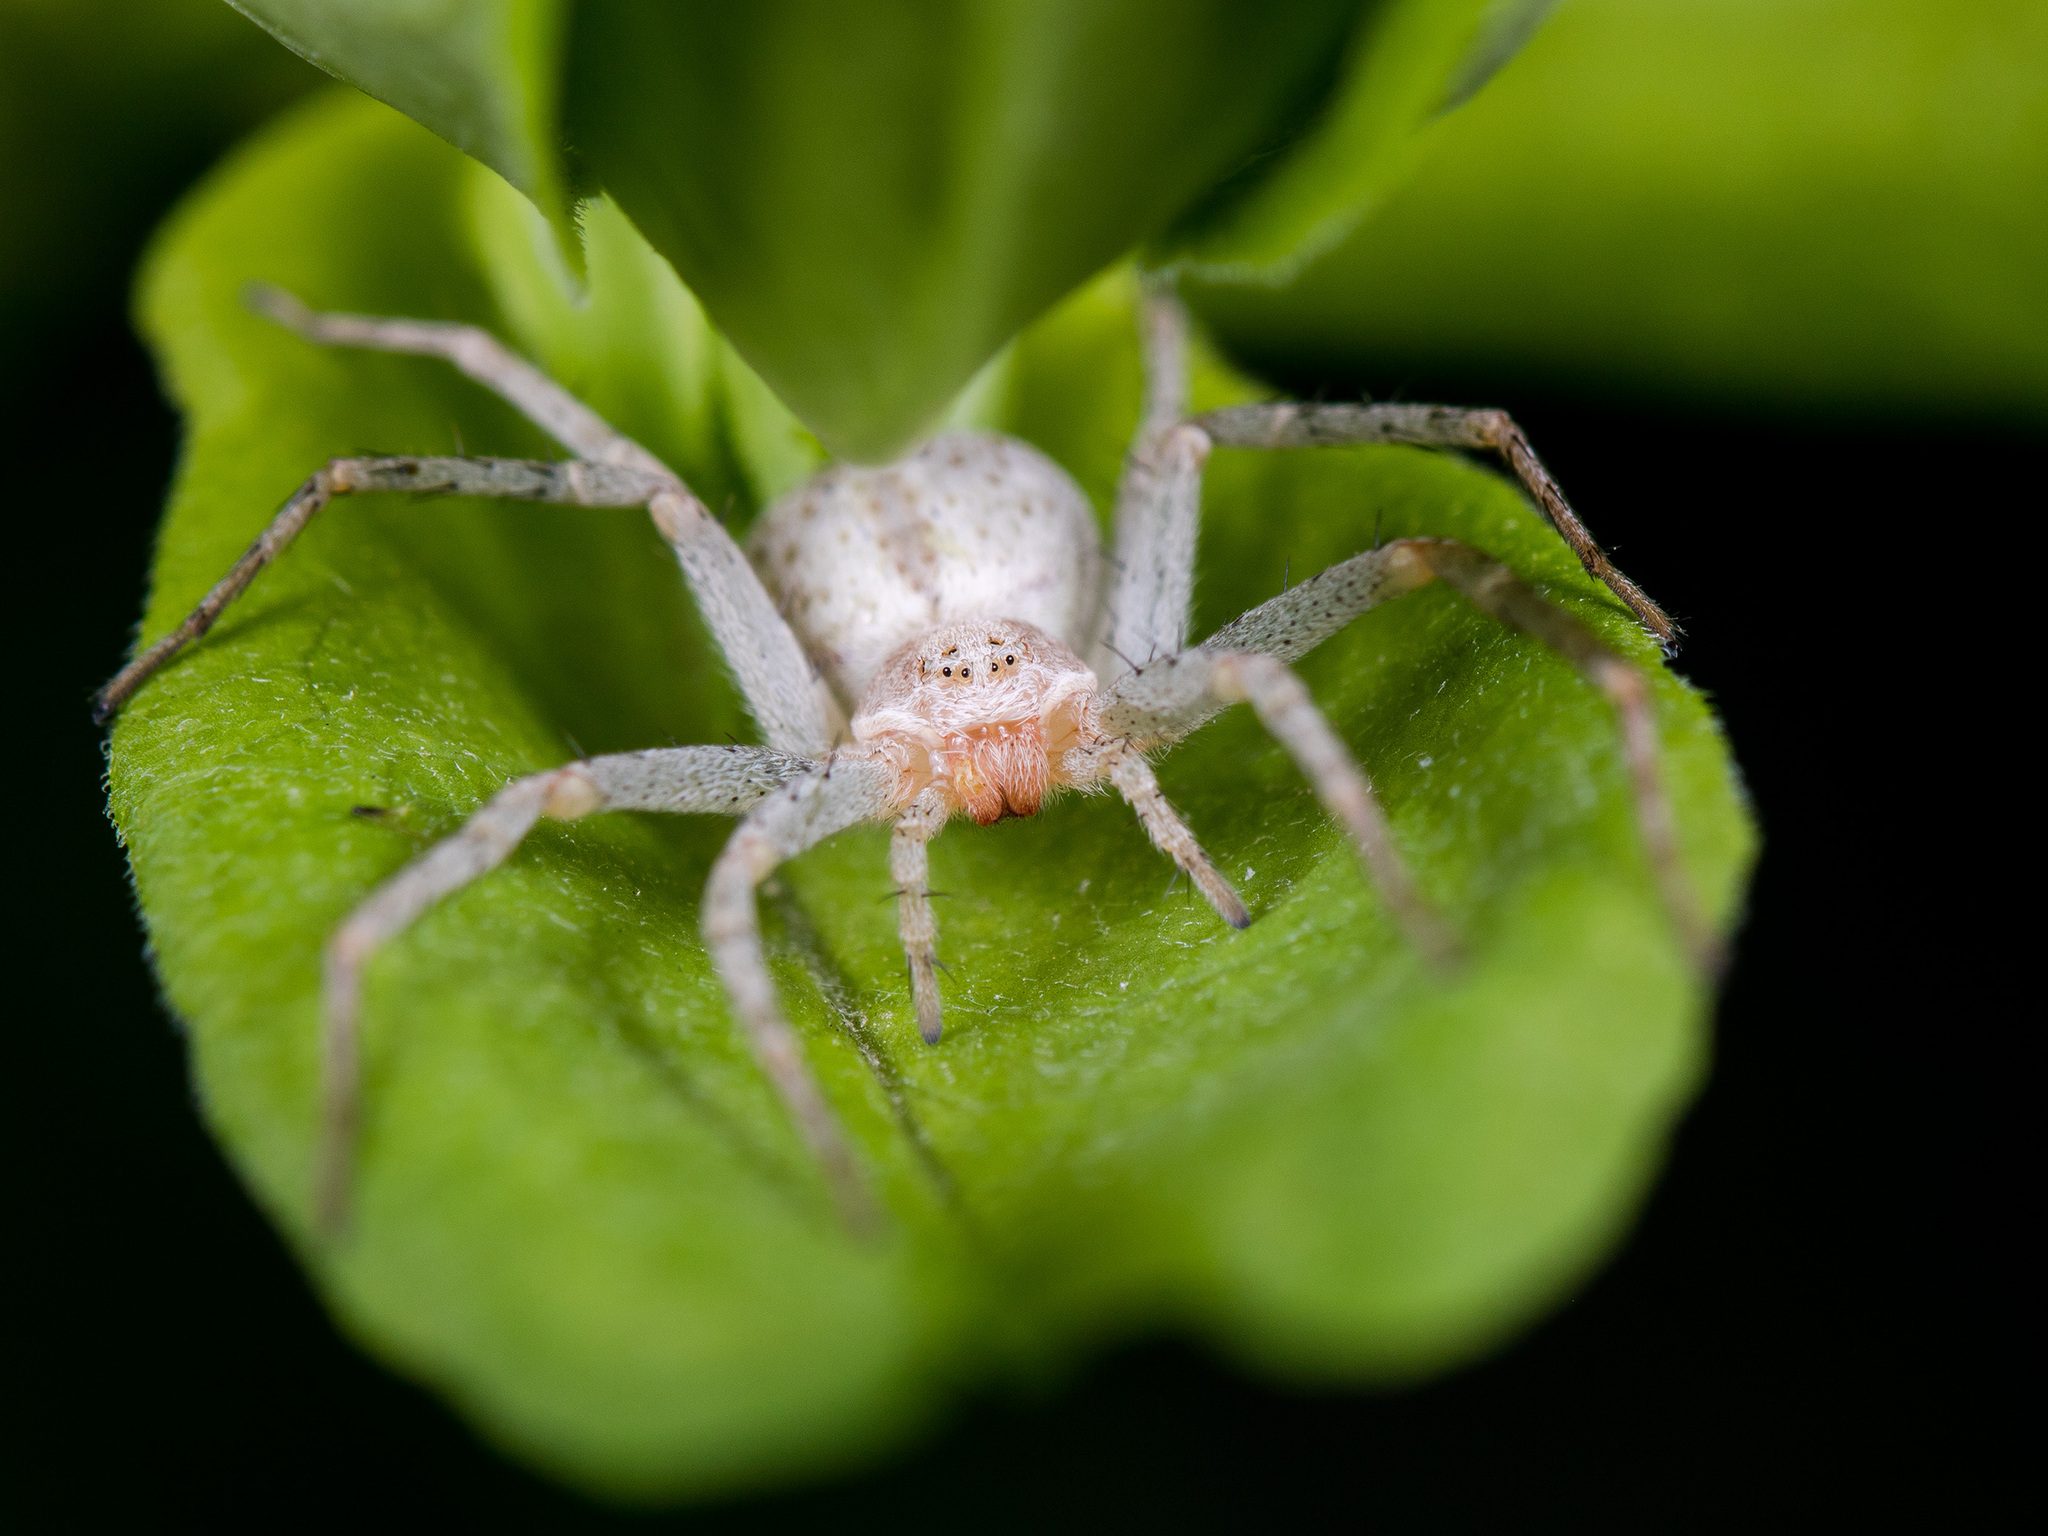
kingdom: Animalia
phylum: Arthropoda
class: Arachnida
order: Araneae
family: Philodromidae
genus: Philodromus
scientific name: Philodromus longipalpis
